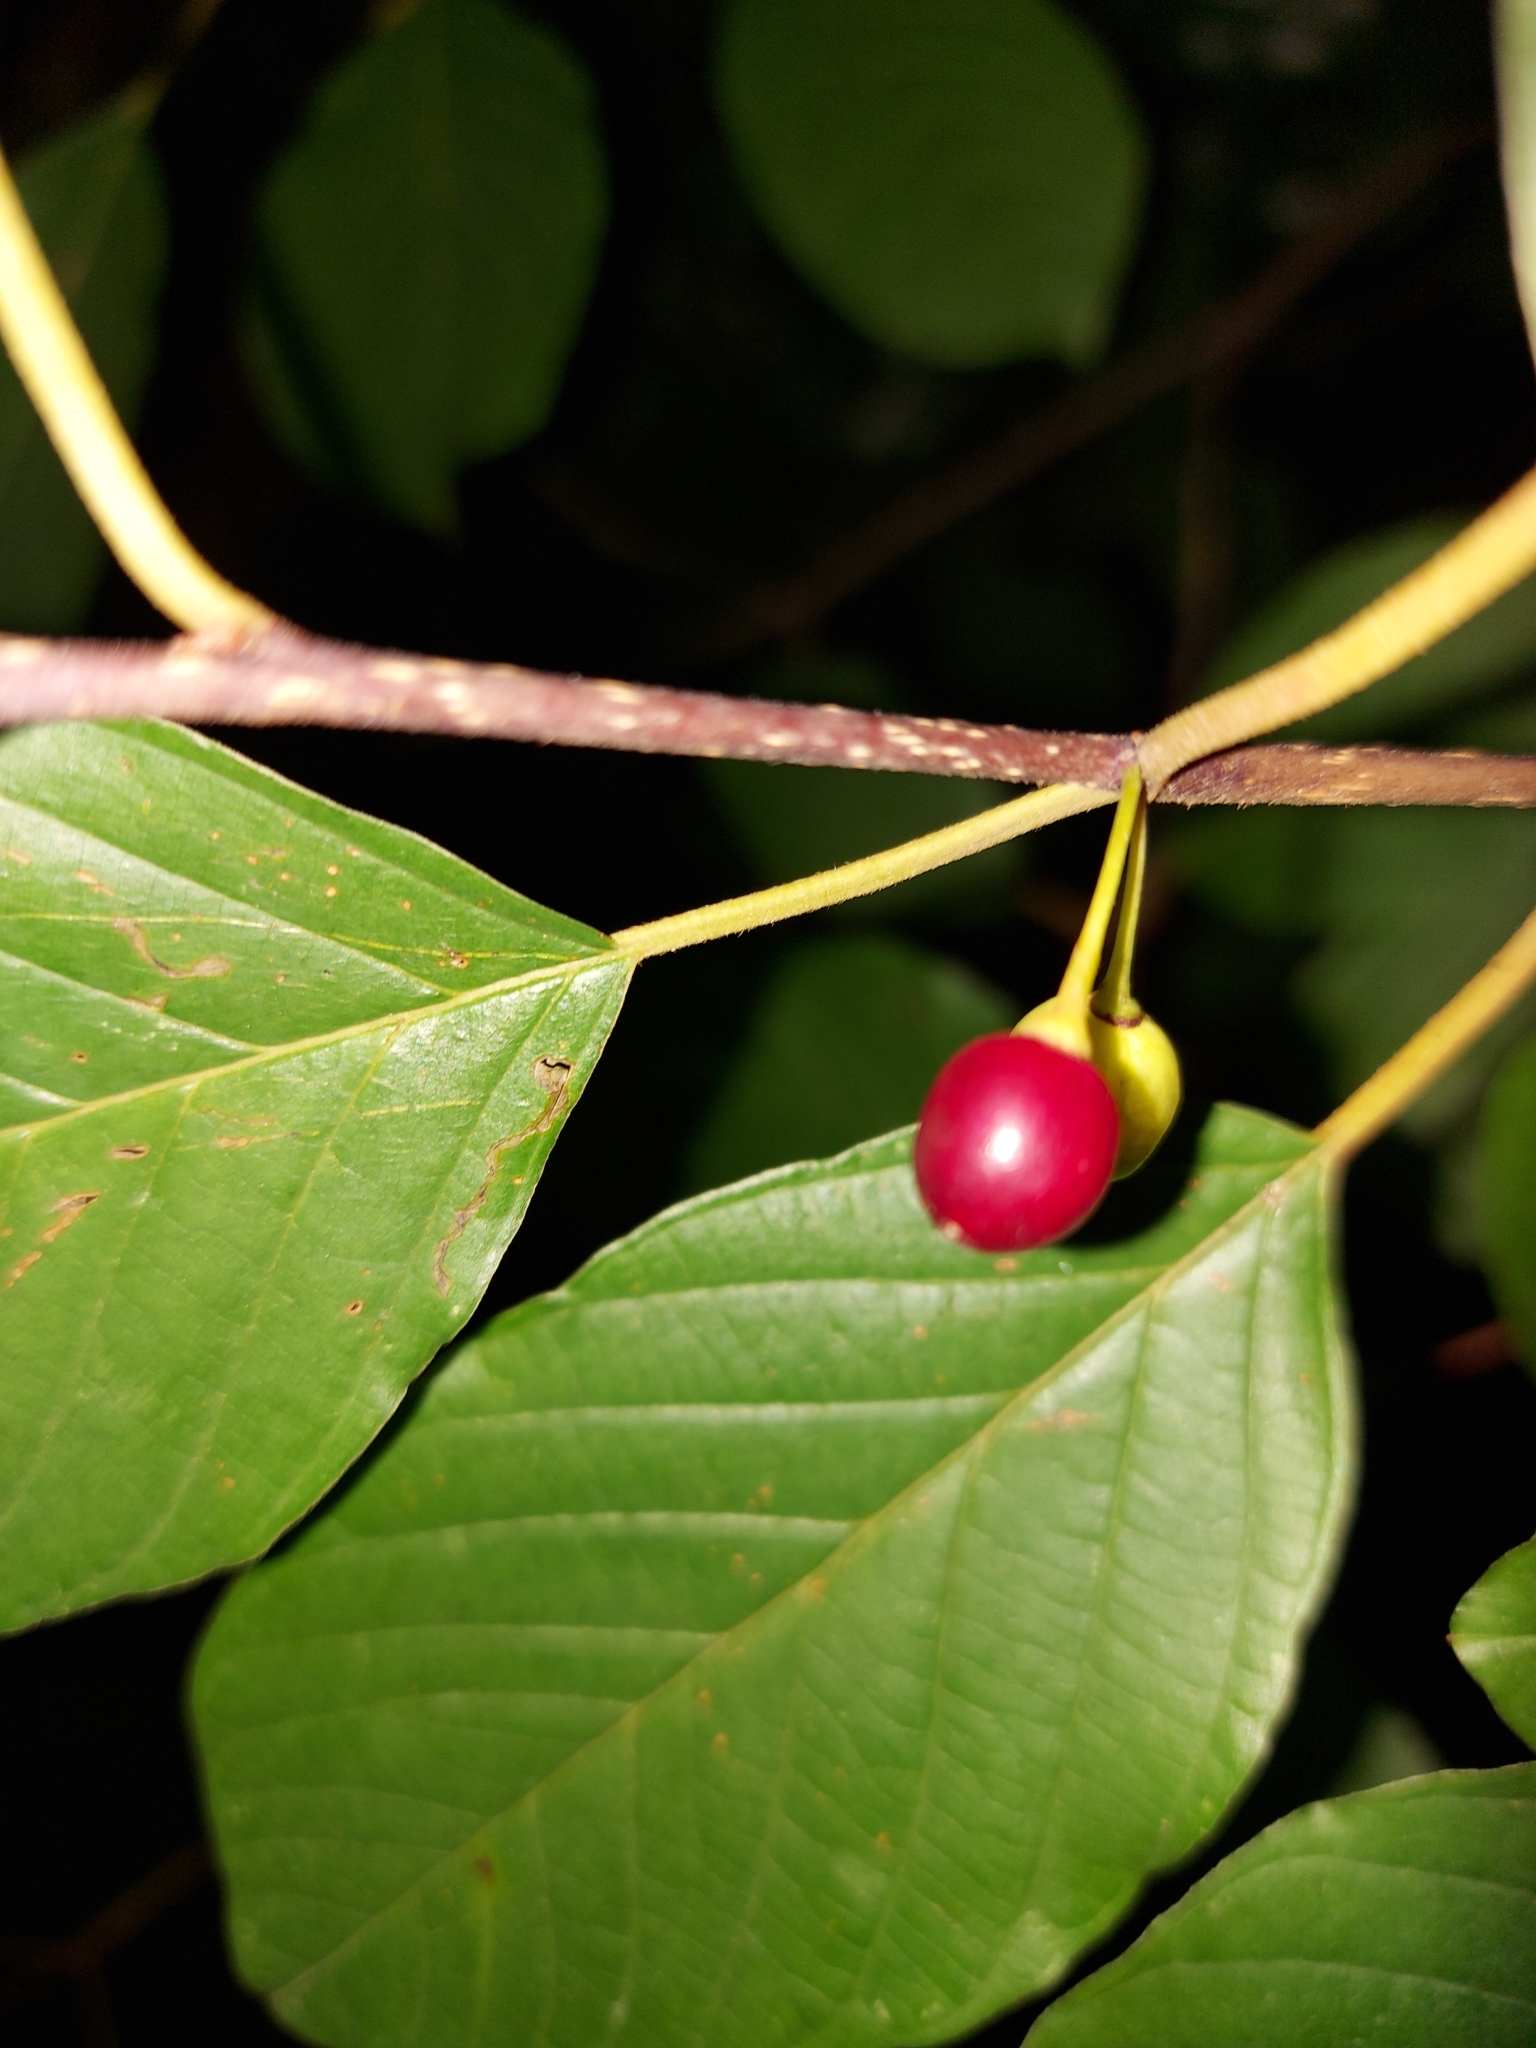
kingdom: Plantae
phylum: Tracheophyta
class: Magnoliopsida
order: Rosales
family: Rhamnaceae
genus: Frangula
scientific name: Frangula alnus
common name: Alder buckthorn
